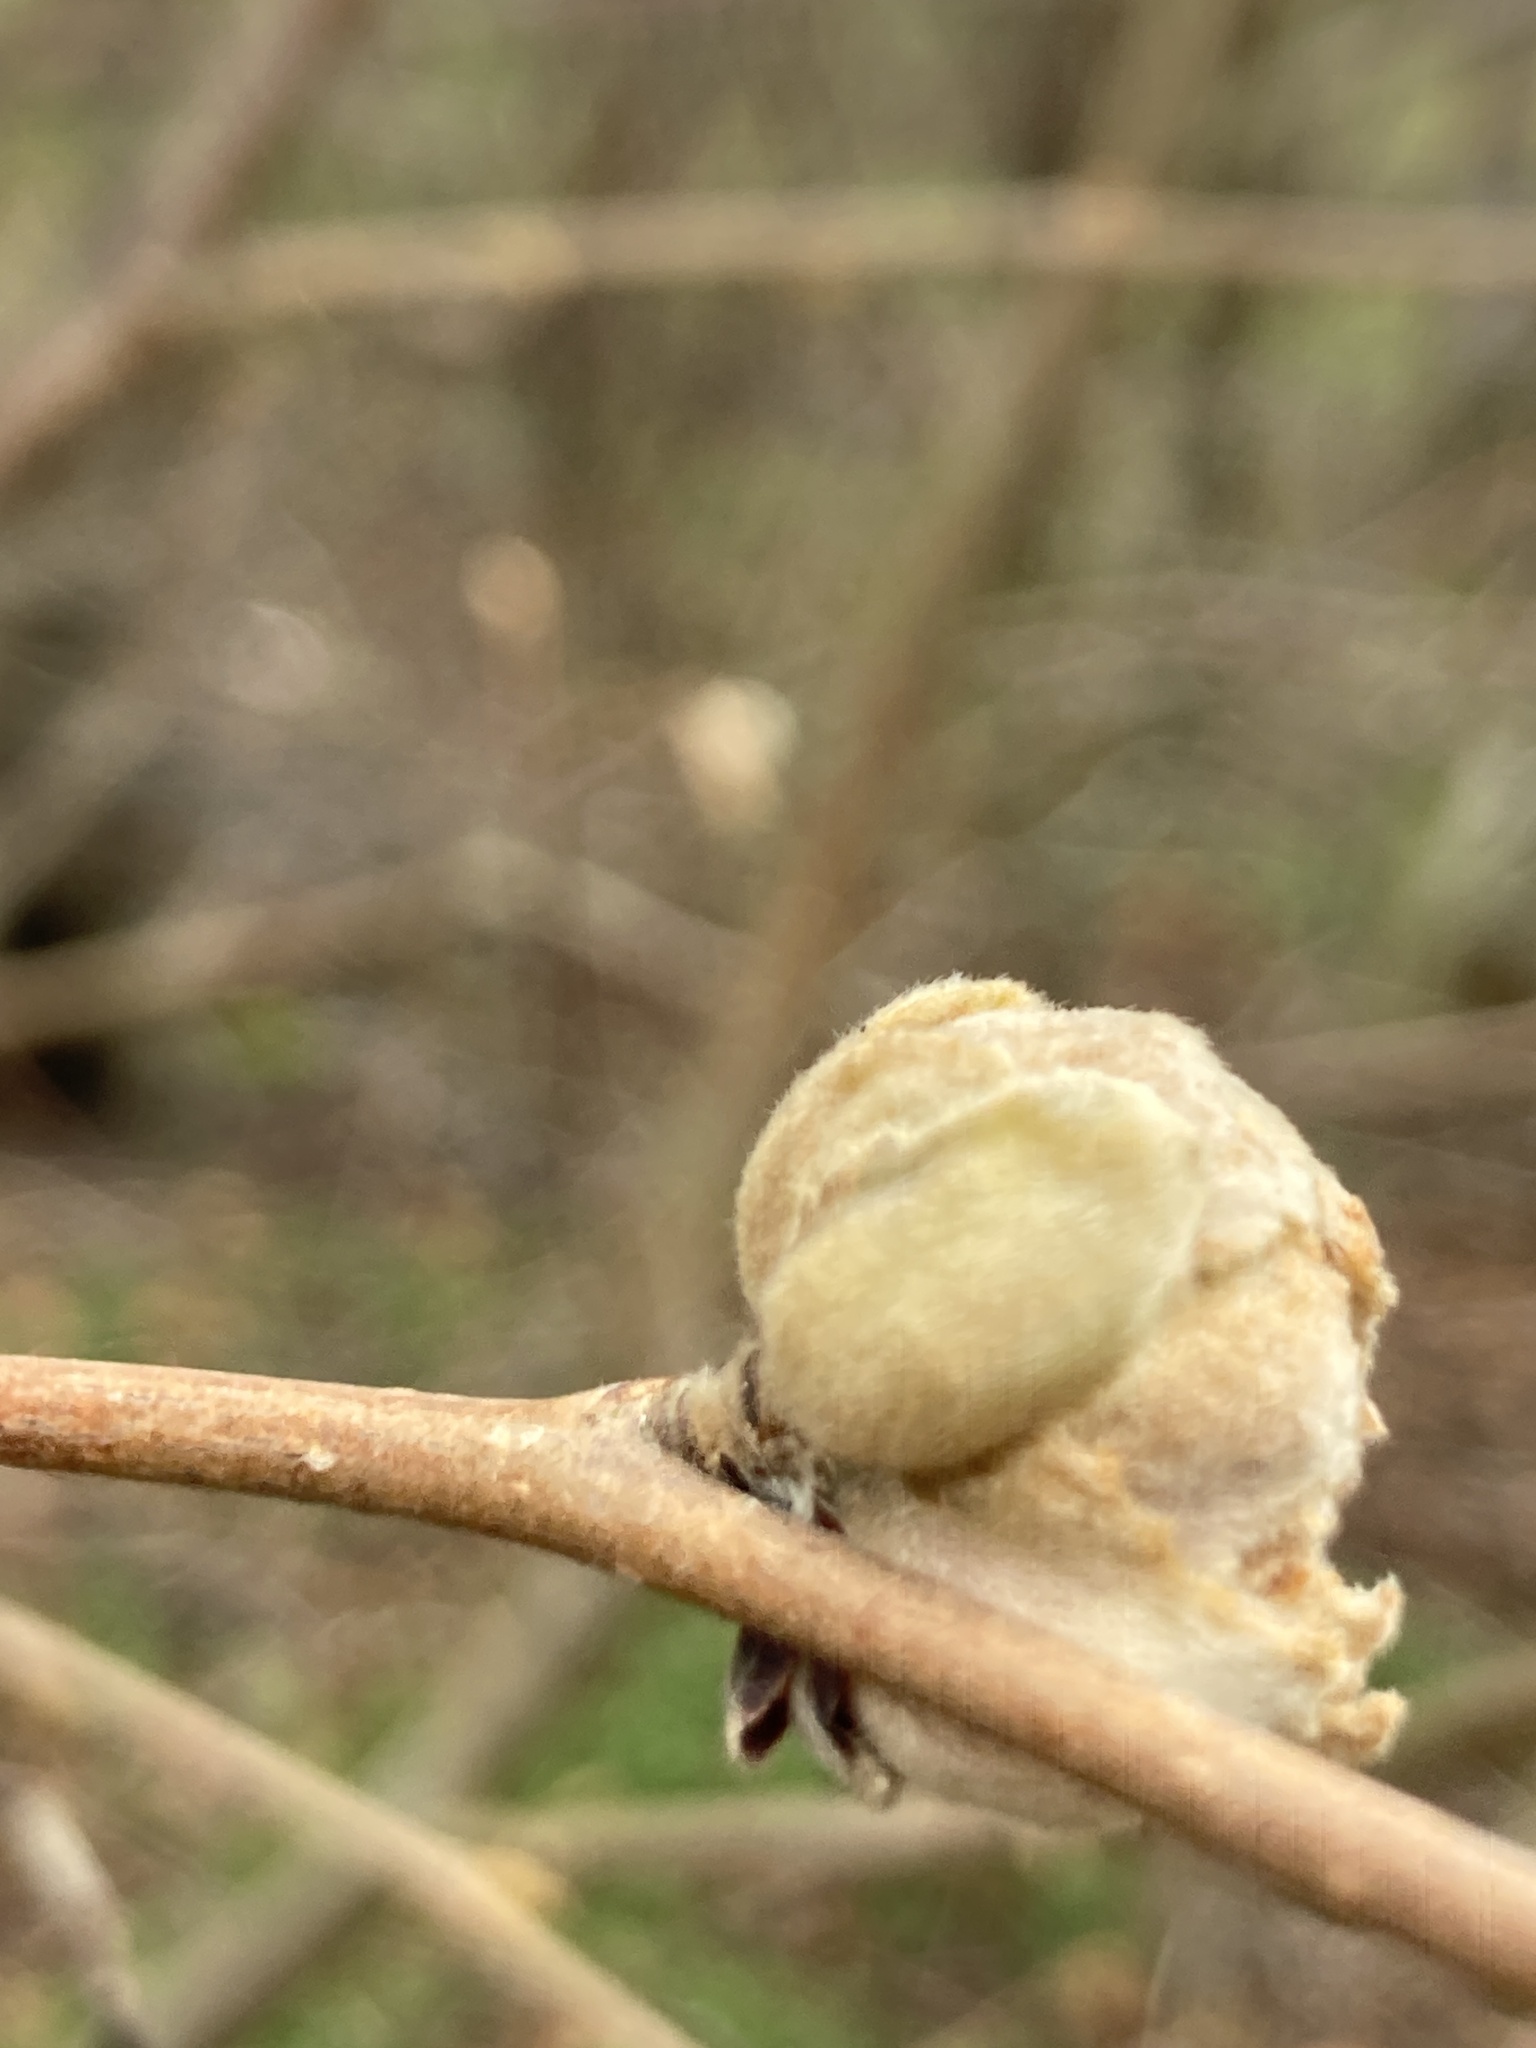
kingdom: Animalia
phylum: Arthropoda
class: Arachnida
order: Trombidiformes
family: Phytoptidae
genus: Phytoptus
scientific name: Phytoptus avellanae
